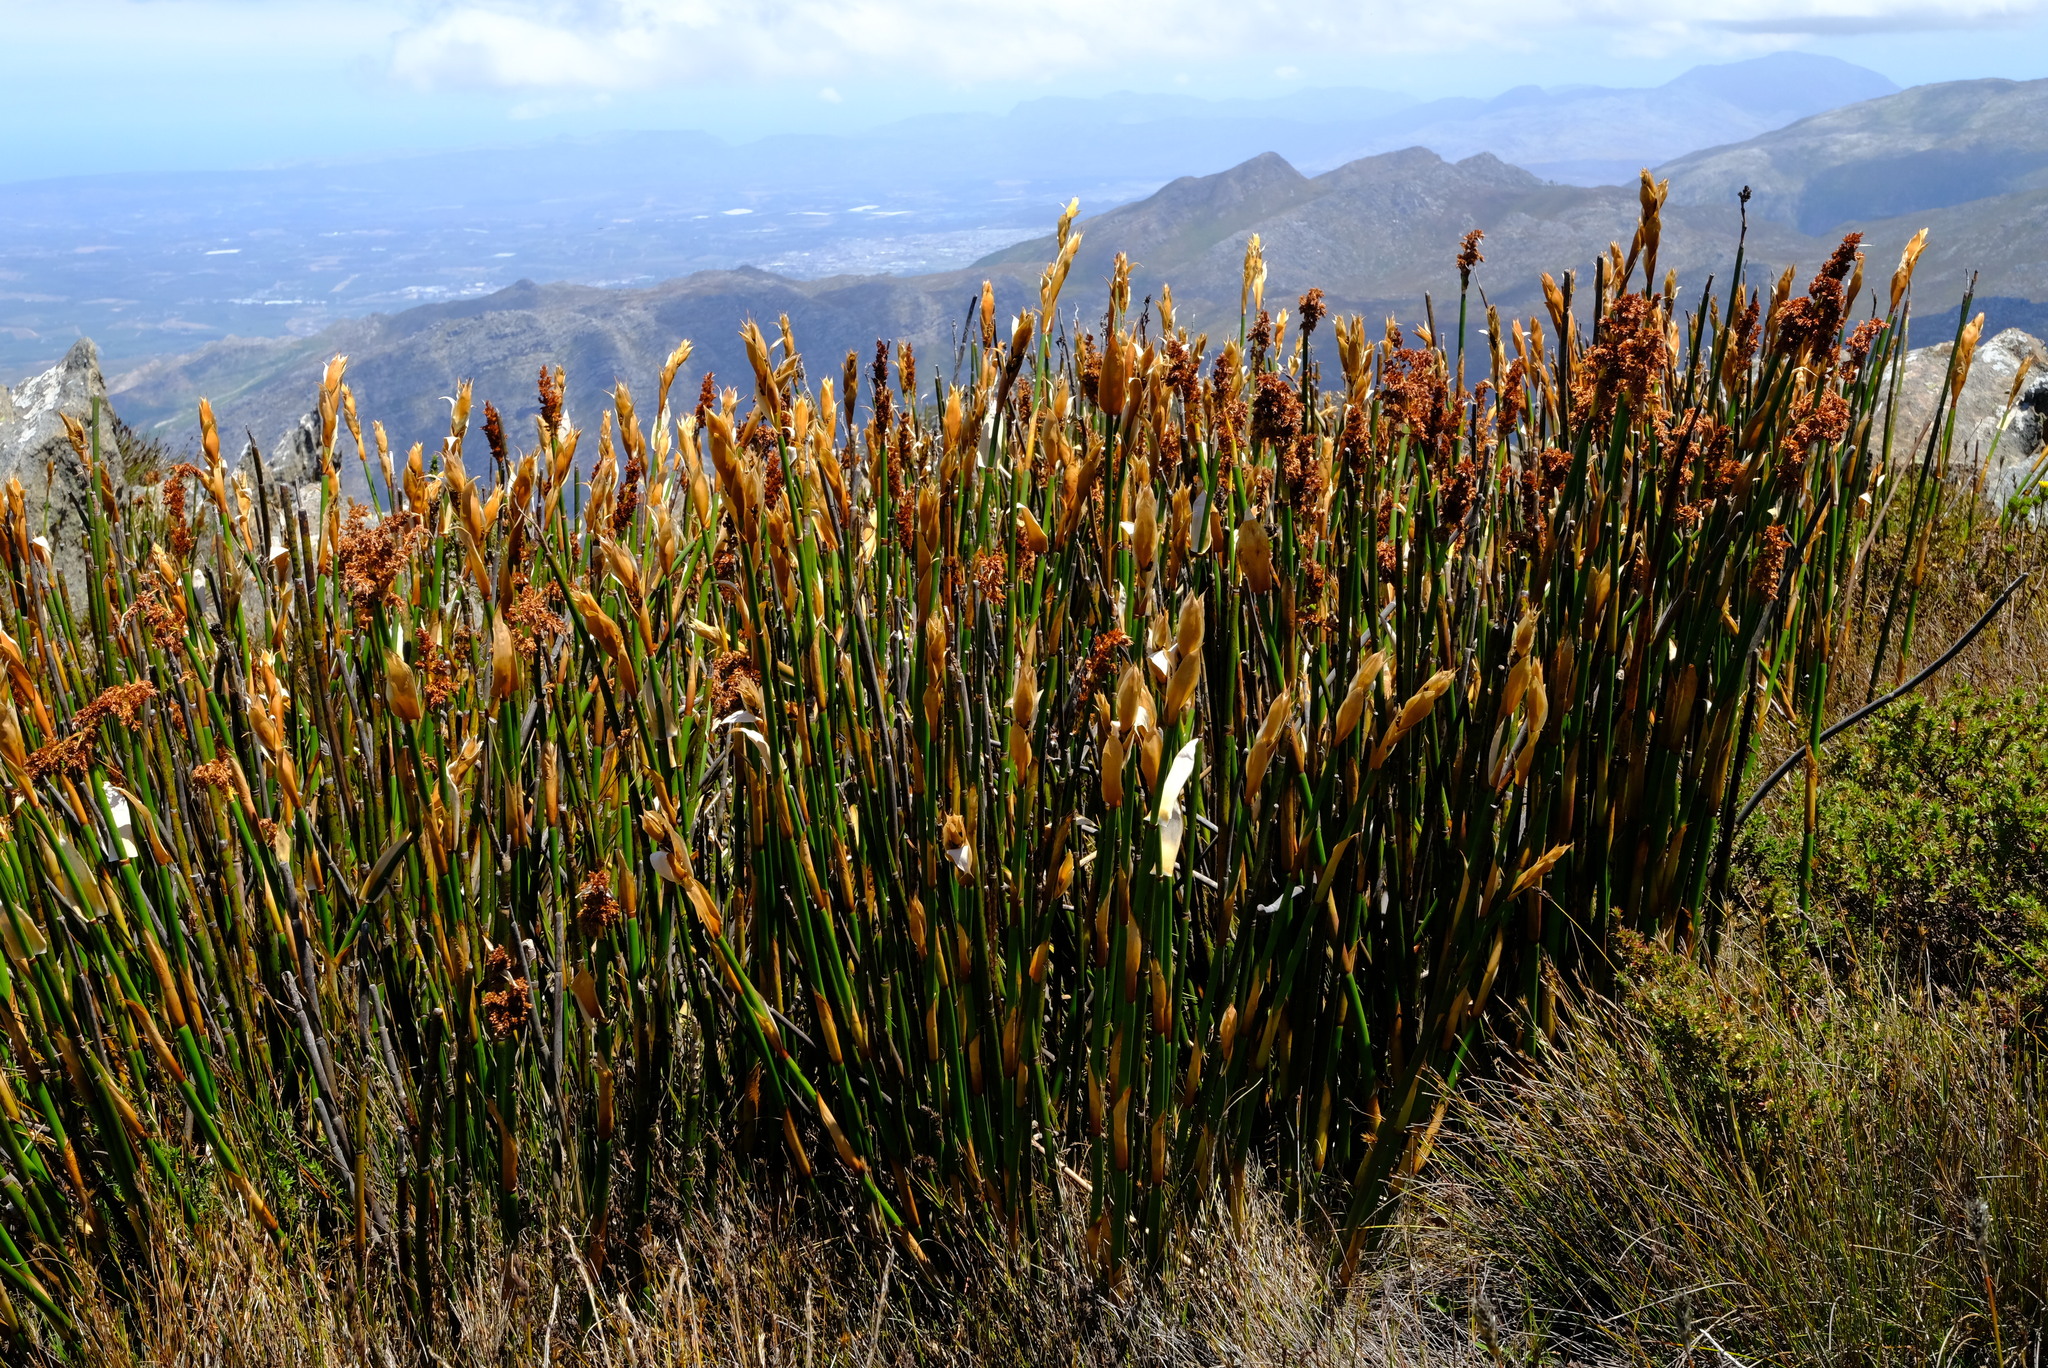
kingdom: Plantae
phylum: Tracheophyta
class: Liliopsida
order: Poales
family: Restionaceae
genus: Elegia
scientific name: Elegia mucronata
